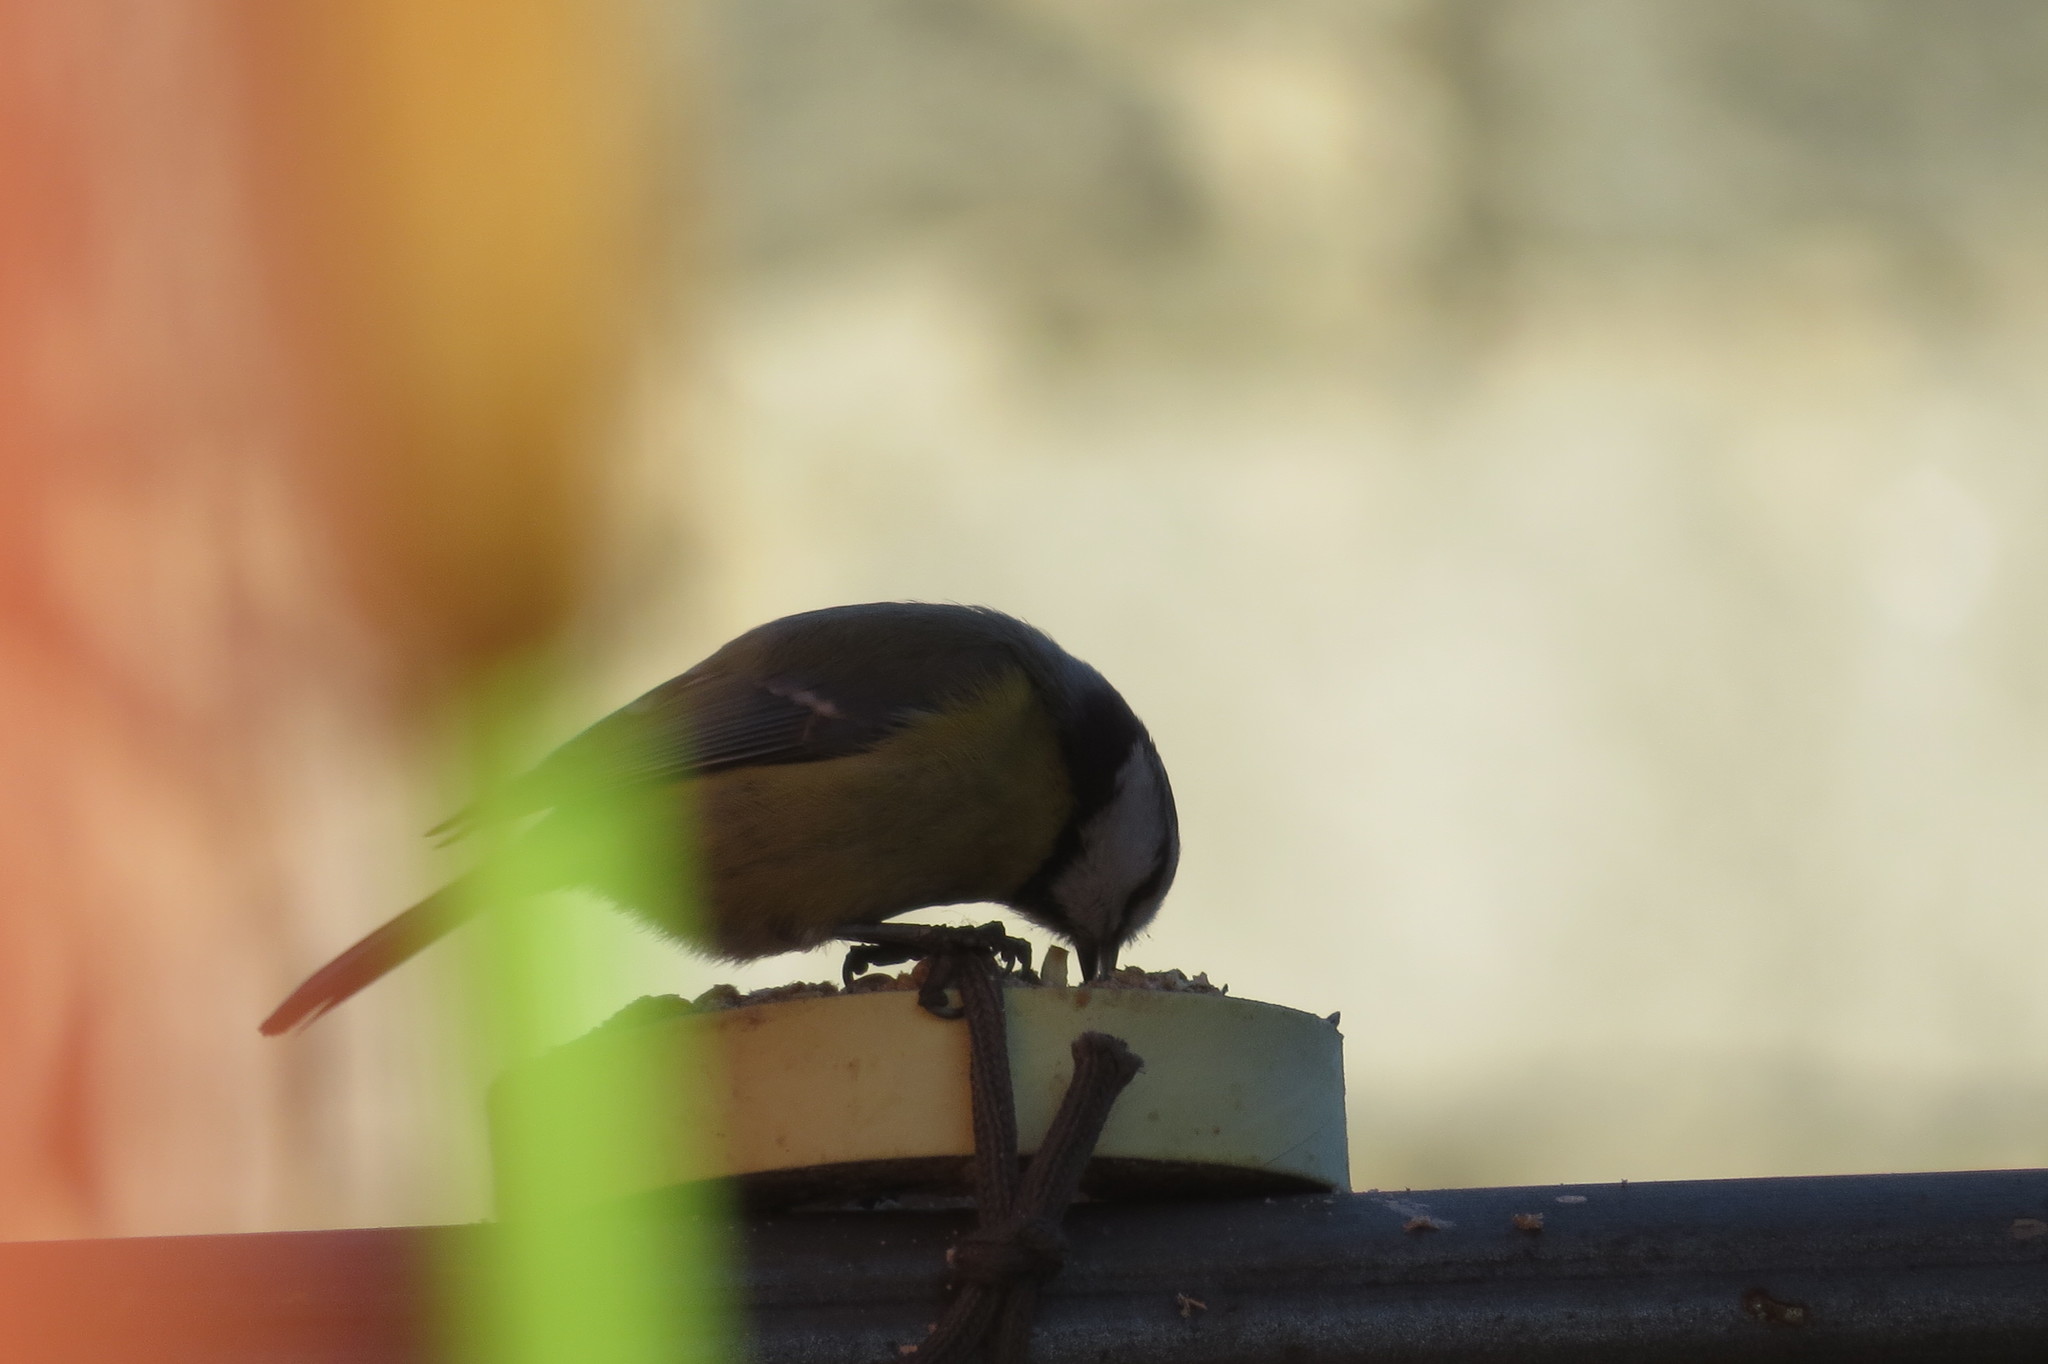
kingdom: Animalia
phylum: Chordata
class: Aves
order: Passeriformes
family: Paridae
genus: Cyanistes
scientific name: Cyanistes caeruleus
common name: Eurasian blue tit
